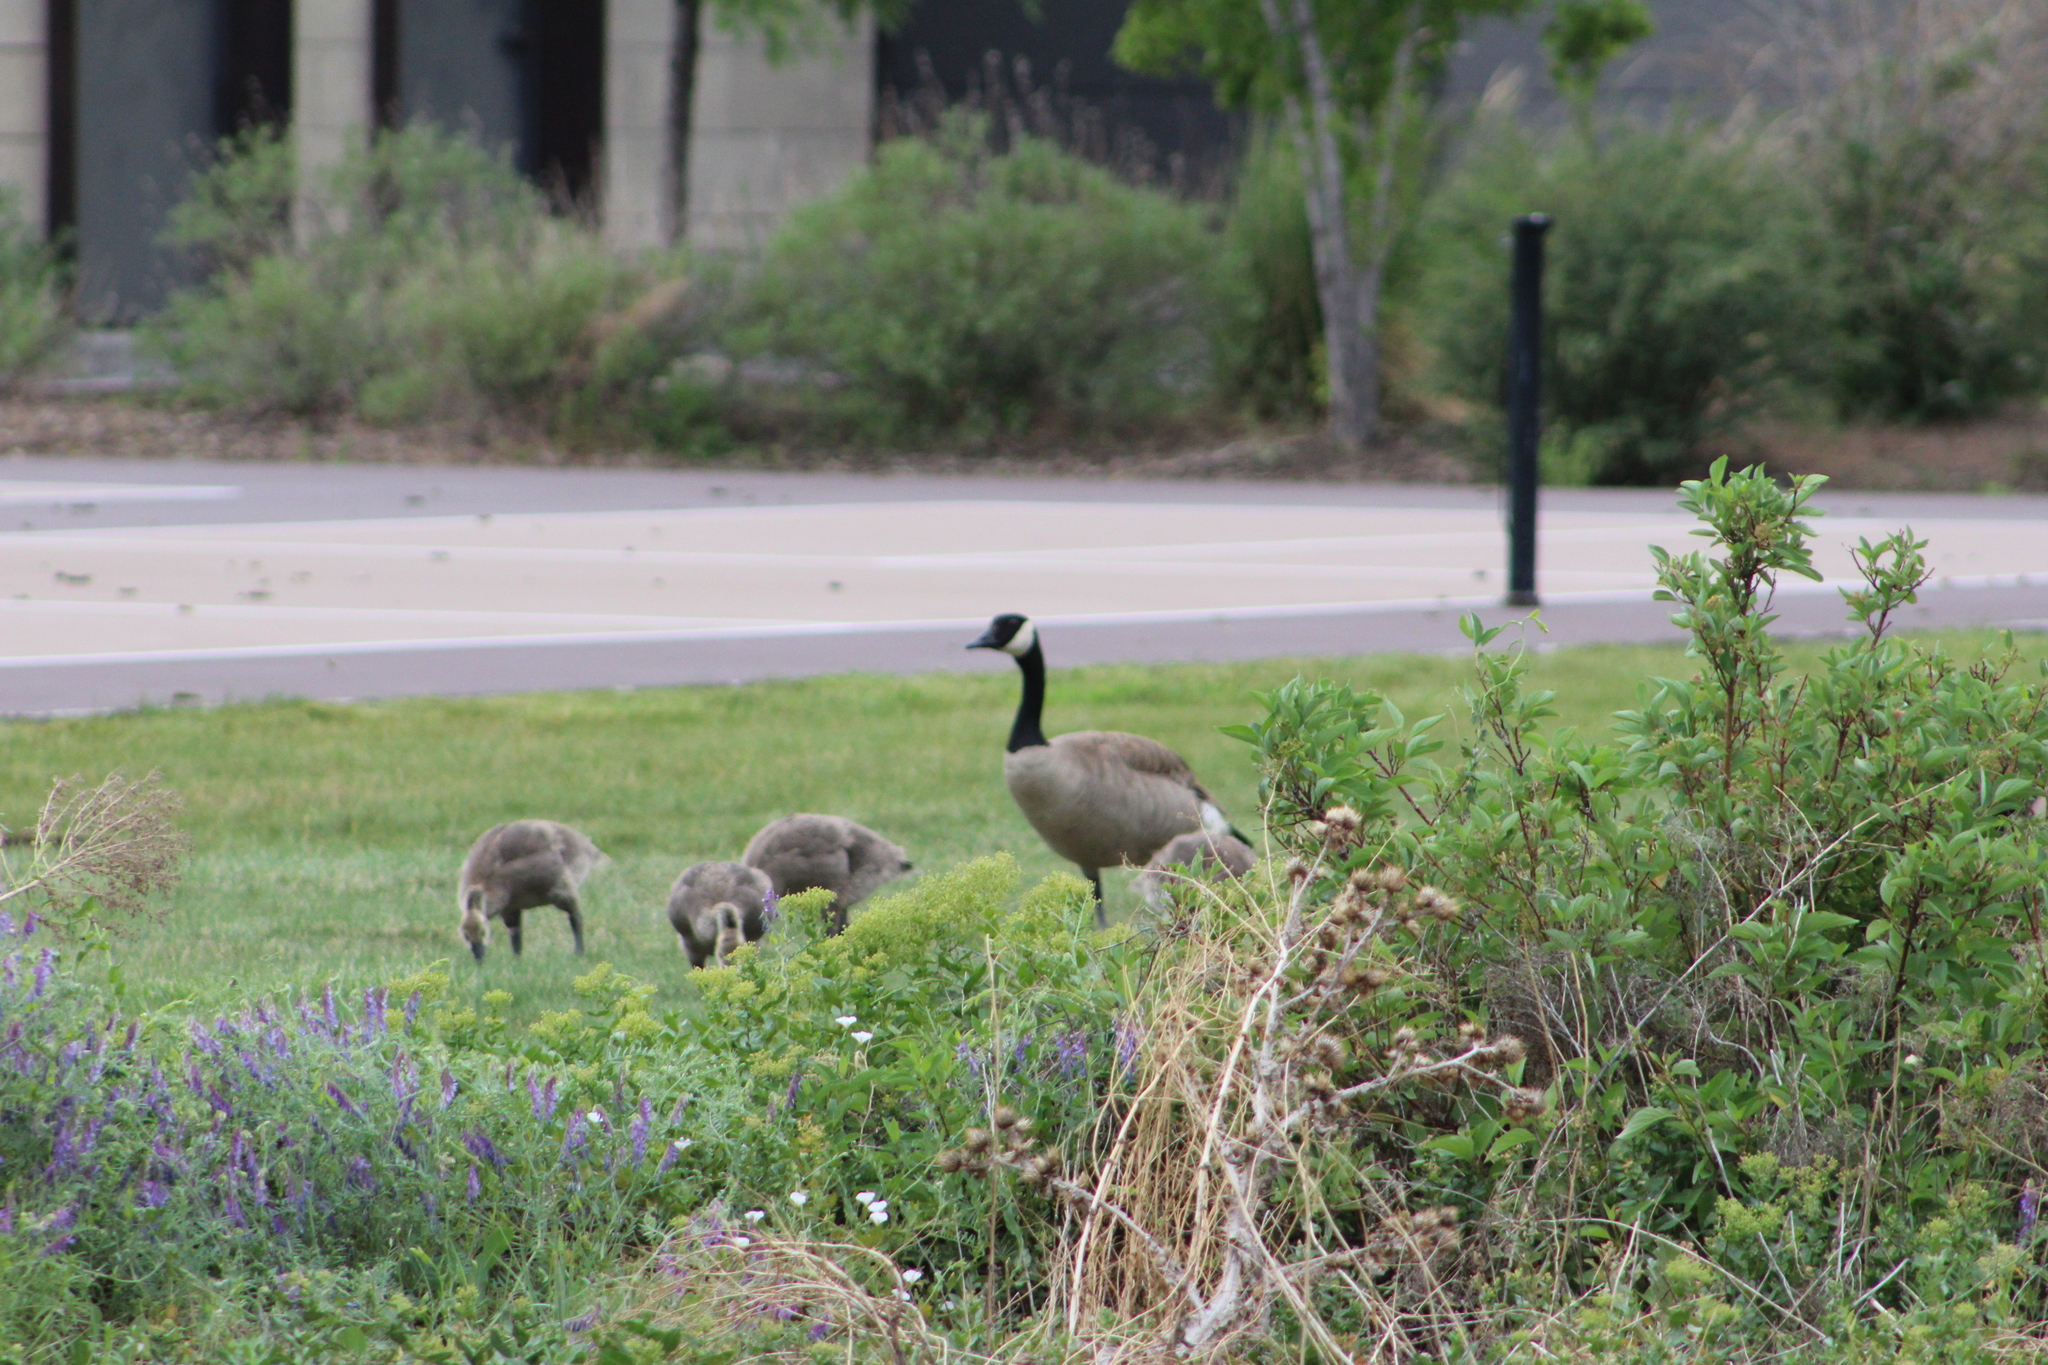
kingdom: Animalia
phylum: Chordata
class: Aves
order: Anseriformes
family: Anatidae
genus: Branta
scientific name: Branta canadensis
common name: Canada goose
